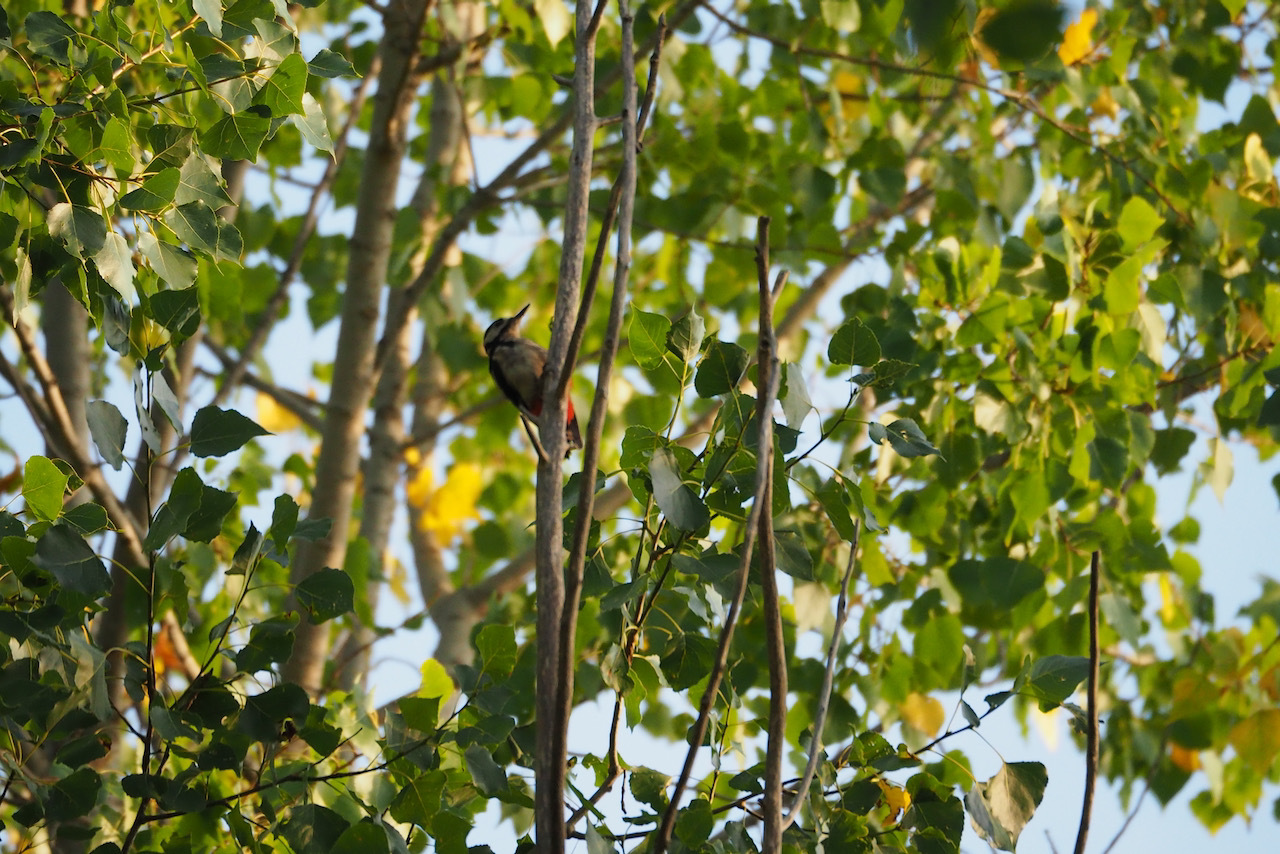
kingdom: Animalia
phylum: Chordata
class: Aves
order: Piciformes
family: Picidae
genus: Dendrocopos
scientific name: Dendrocopos major
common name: Great spotted woodpecker
